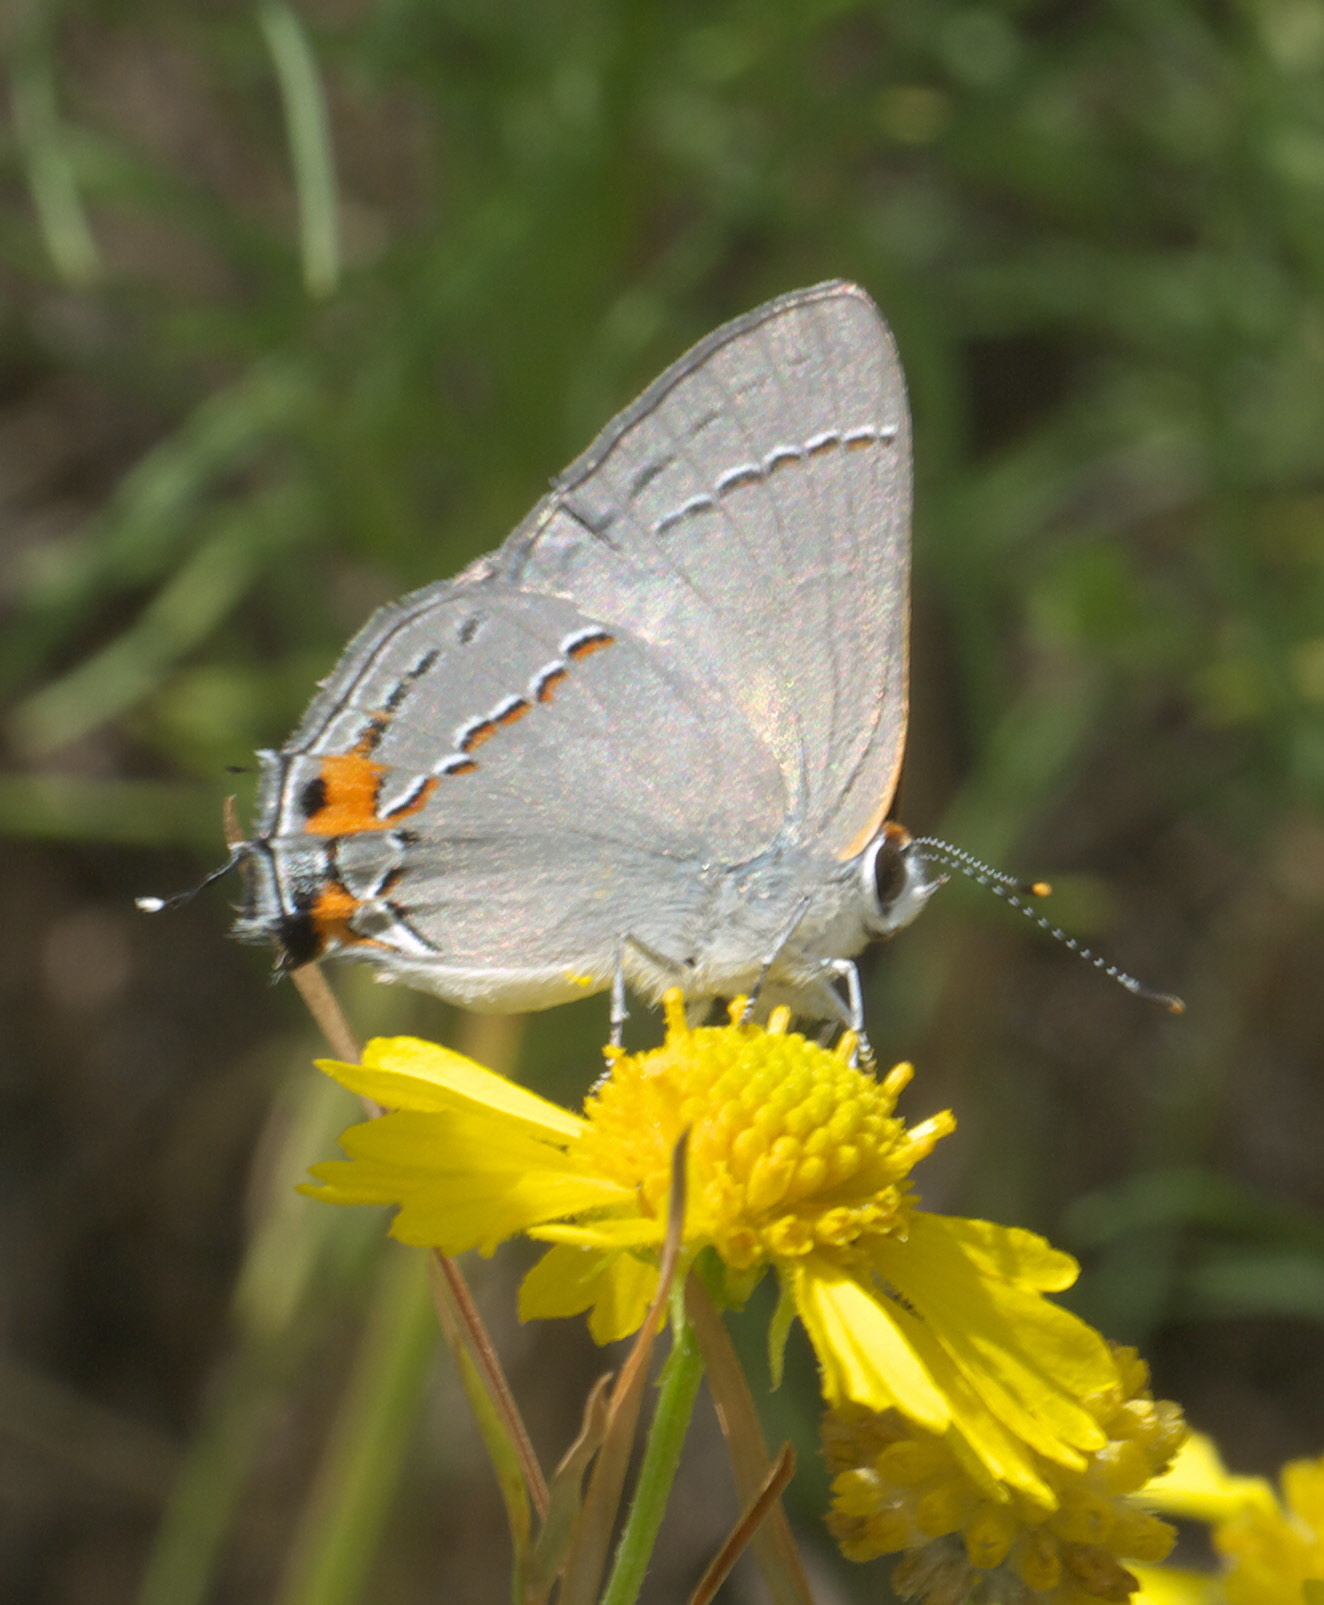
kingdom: Animalia
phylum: Arthropoda
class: Insecta
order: Lepidoptera
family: Lycaenidae
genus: Strymon
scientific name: Strymon melinus
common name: Gray hairstreak
